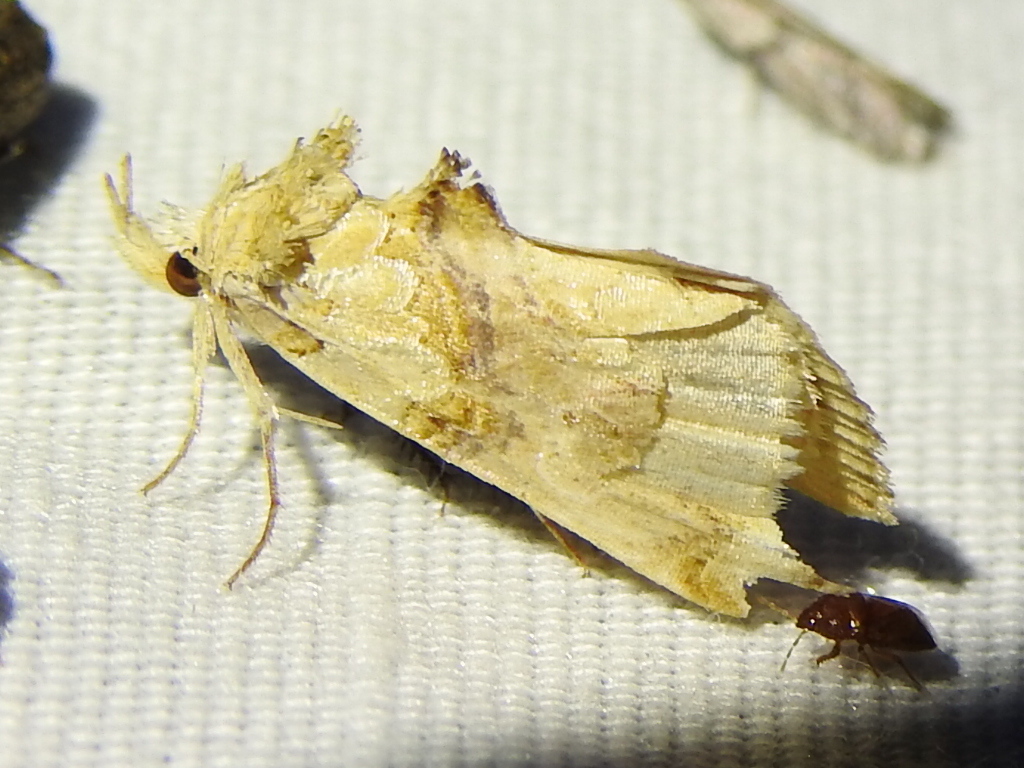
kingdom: Animalia
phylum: Arthropoda
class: Insecta
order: Lepidoptera
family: Erebidae
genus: Plusiodonta
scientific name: Plusiodonta compressipalpis
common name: Moonseed moth
